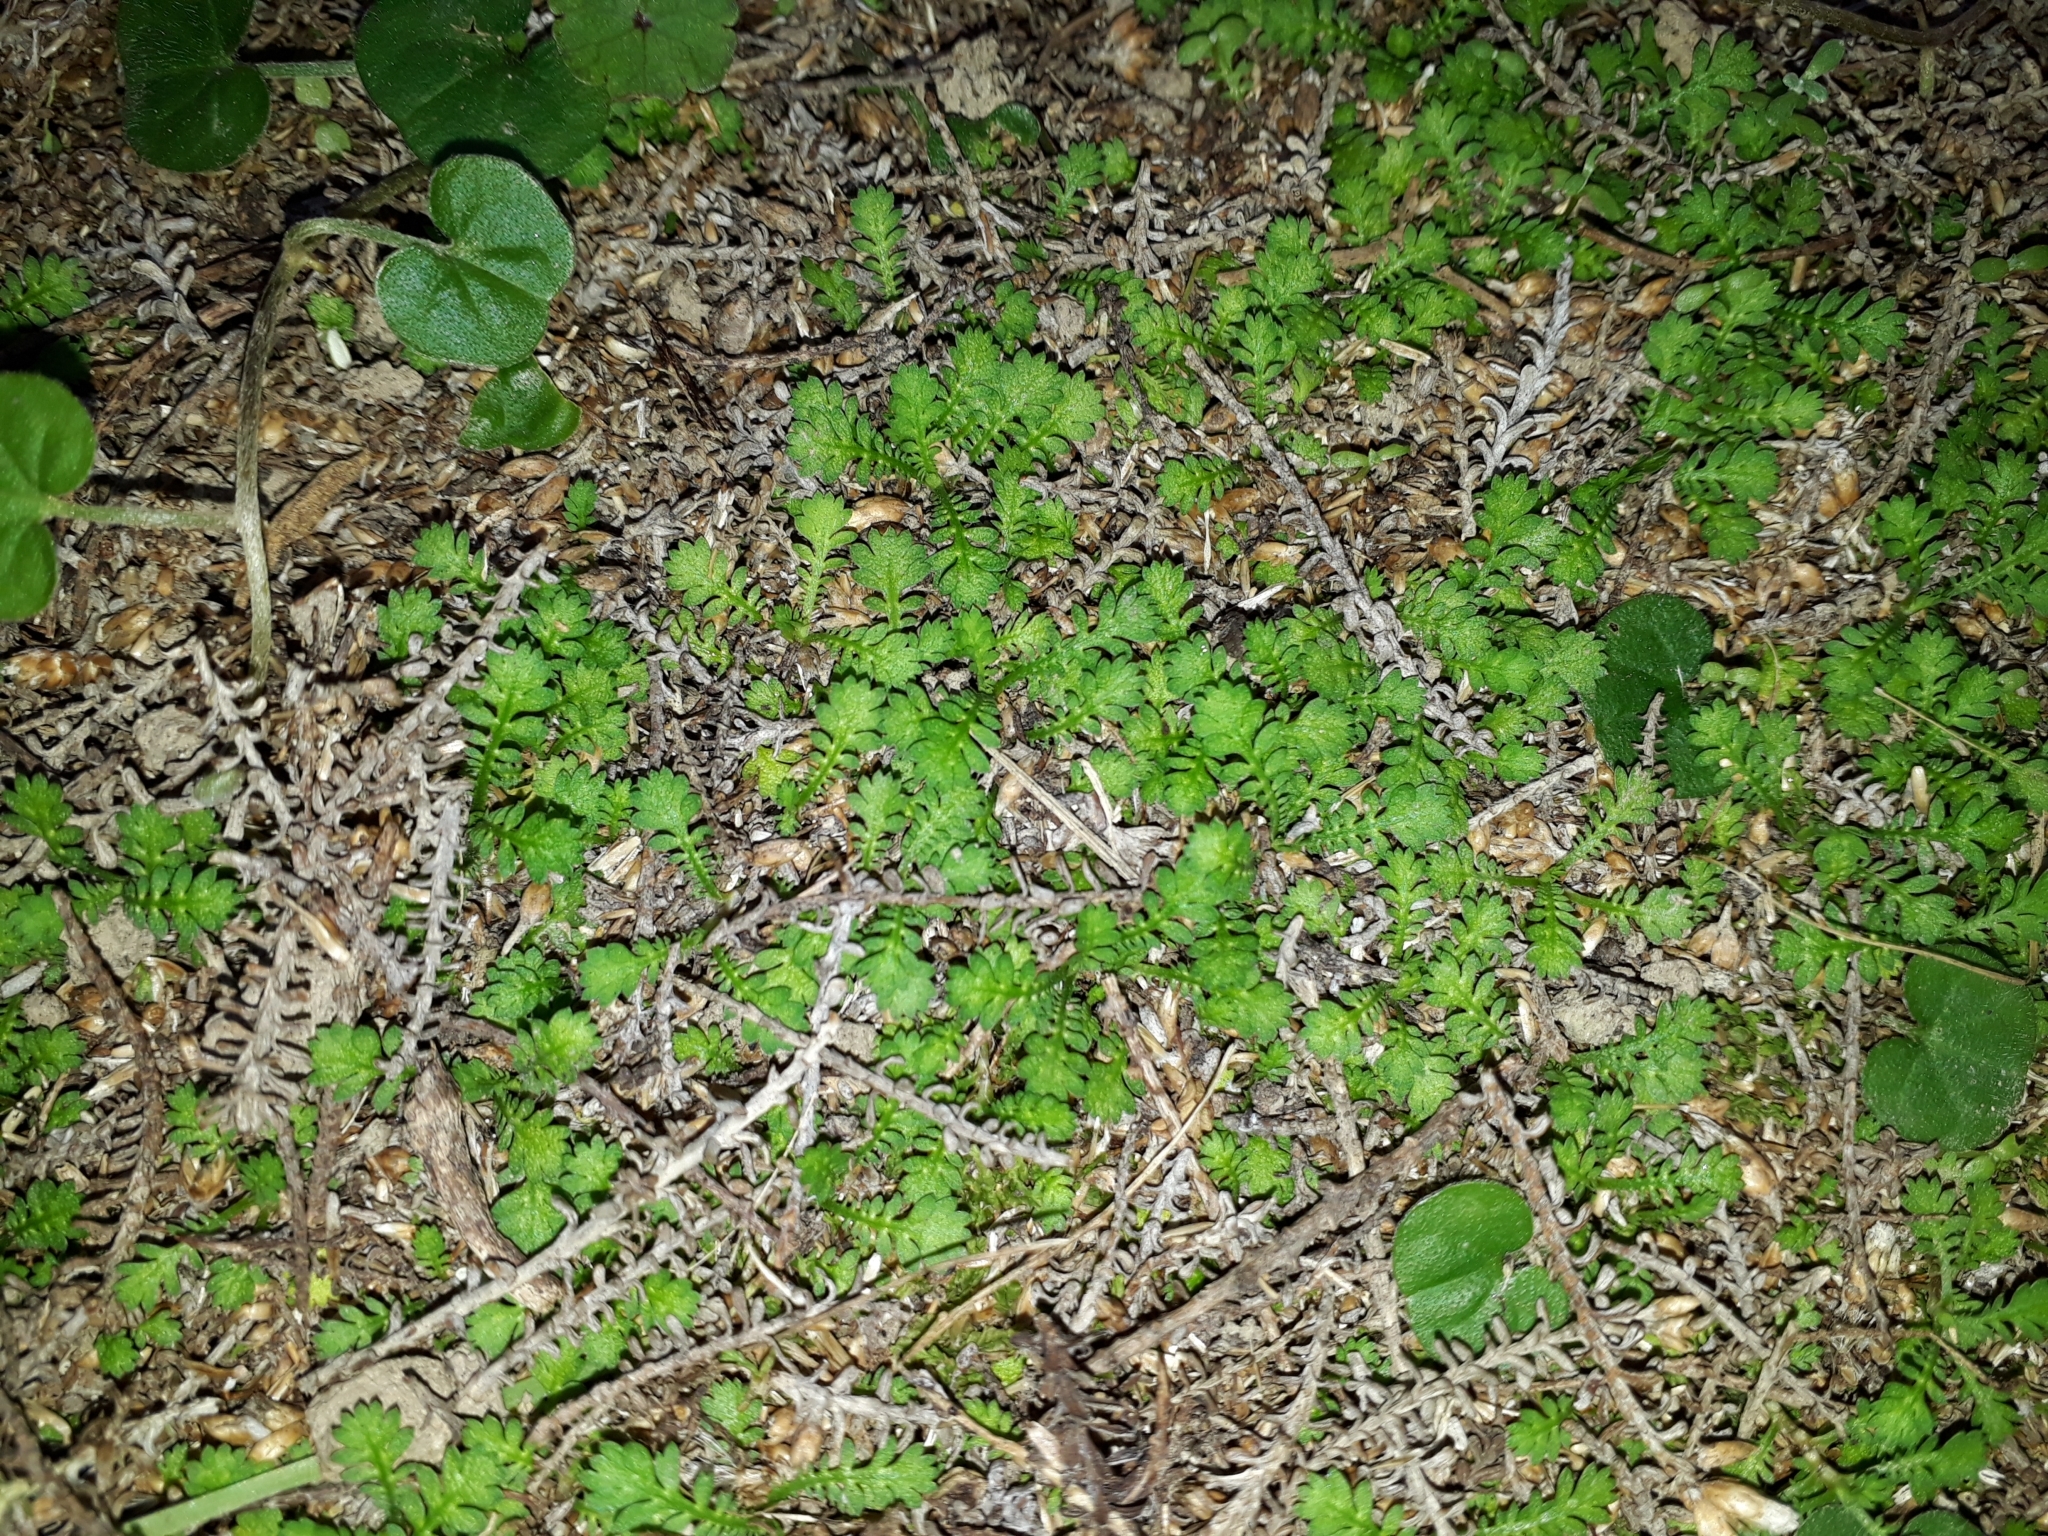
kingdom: Plantae
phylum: Tracheophyta
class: Magnoliopsida
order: Asterales
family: Asteraceae
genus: Leptinella
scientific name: Leptinella nana
